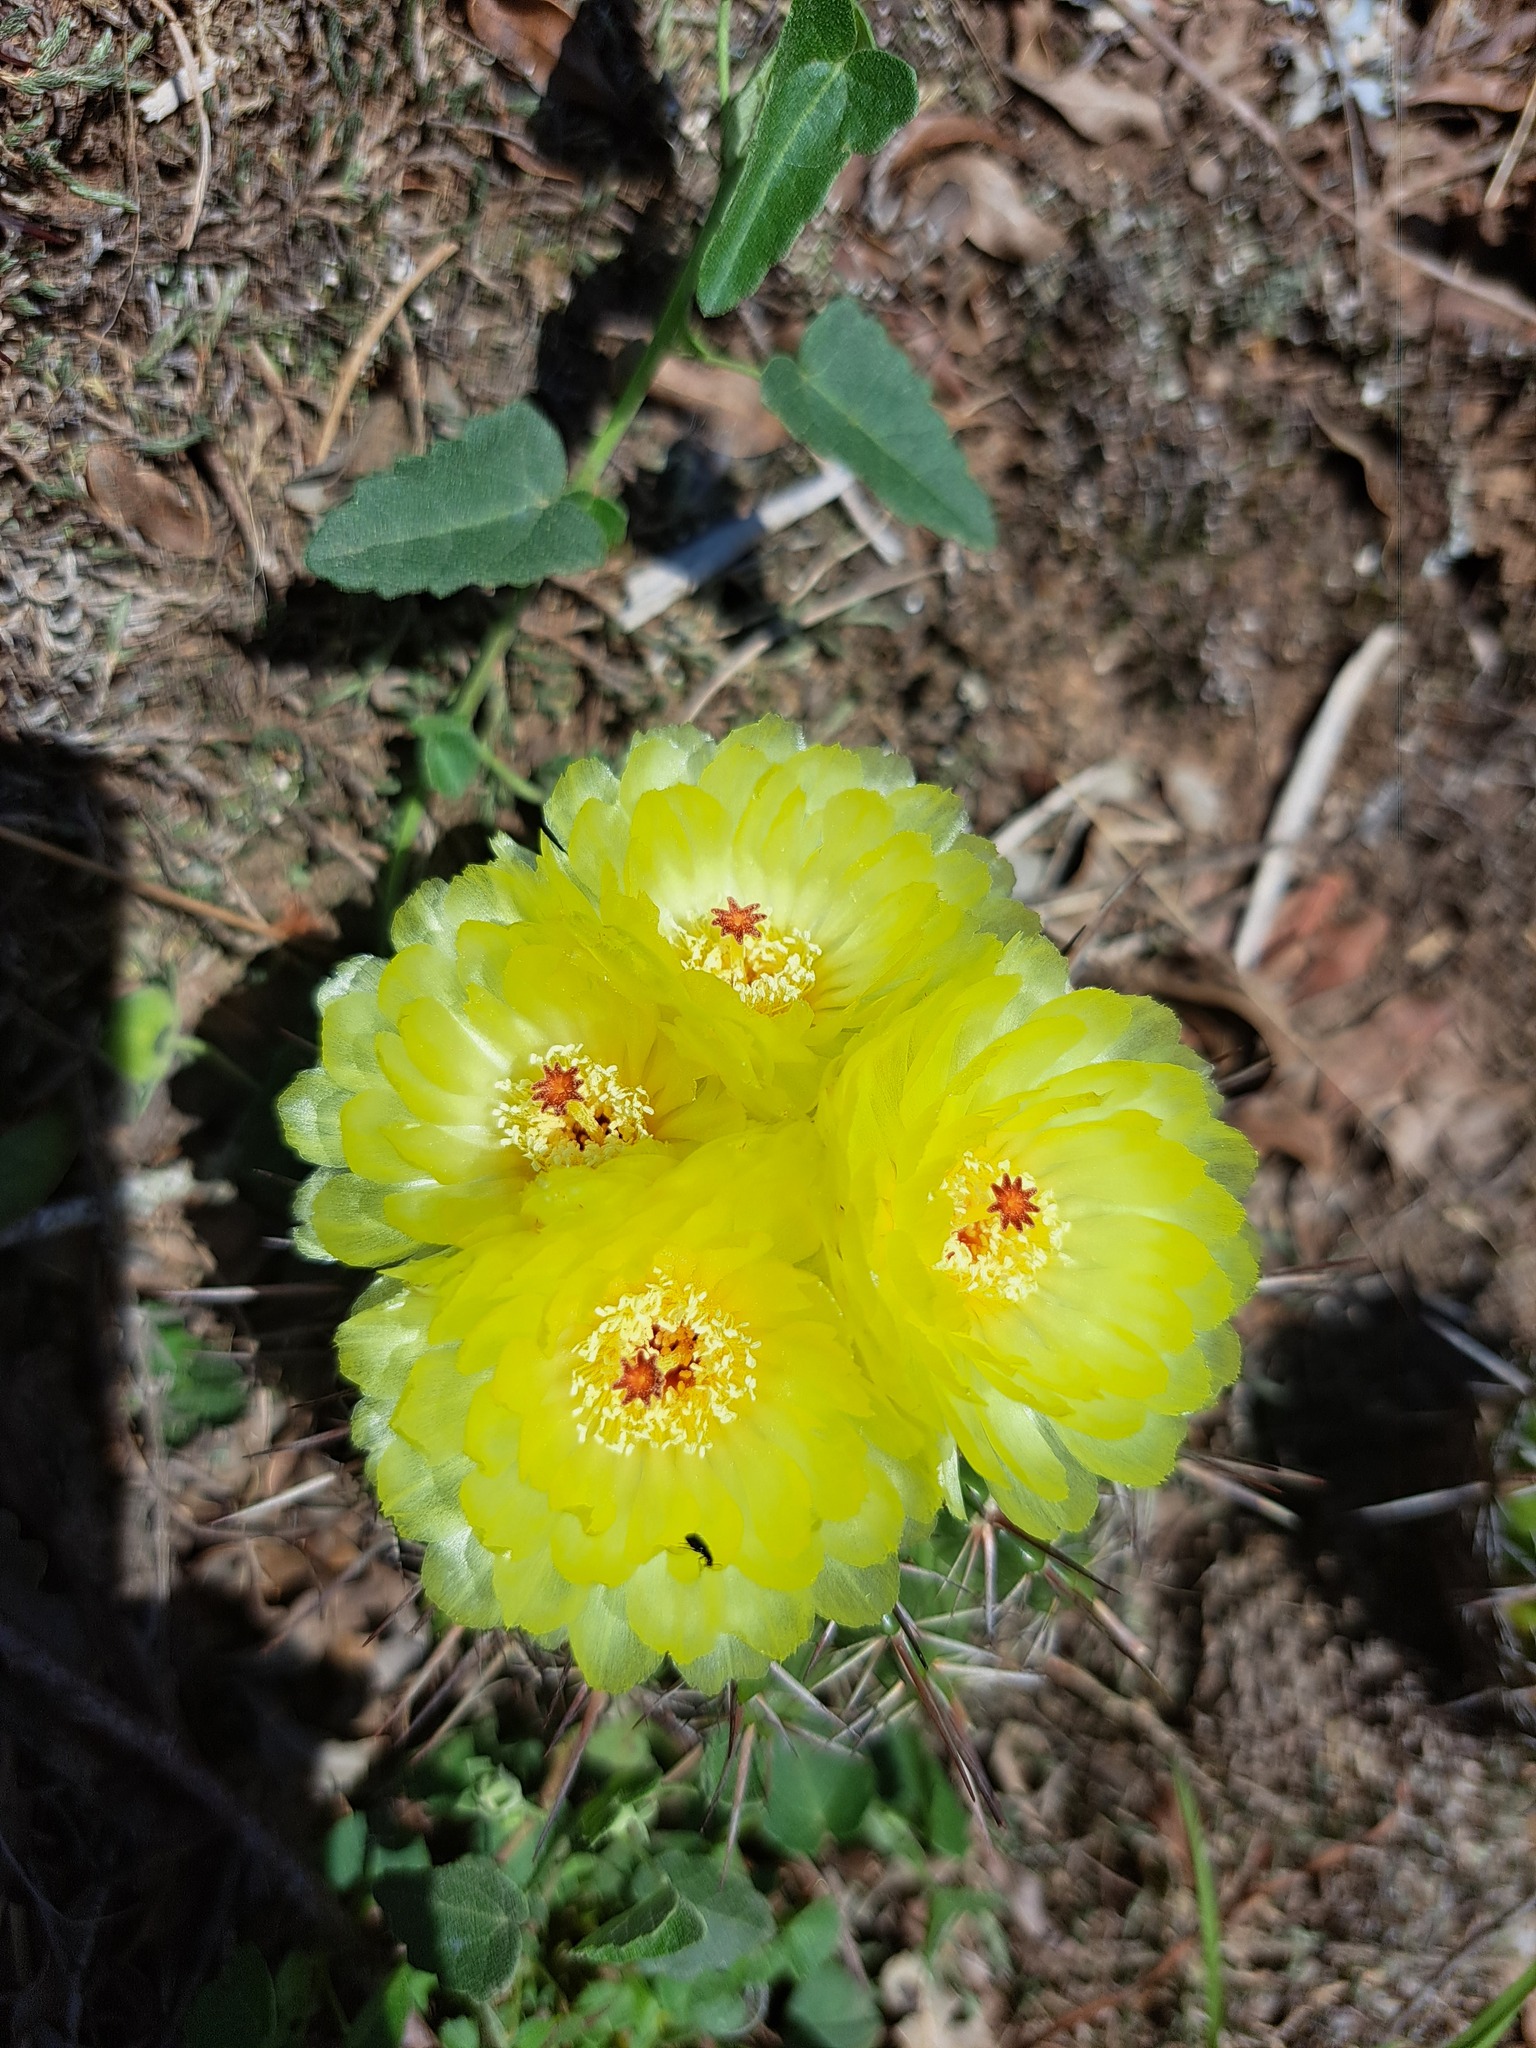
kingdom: Plantae
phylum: Tracheophyta
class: Magnoliopsida
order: Caryophyllales
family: Cactaceae
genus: Parodia
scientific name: Parodia mammulosa
